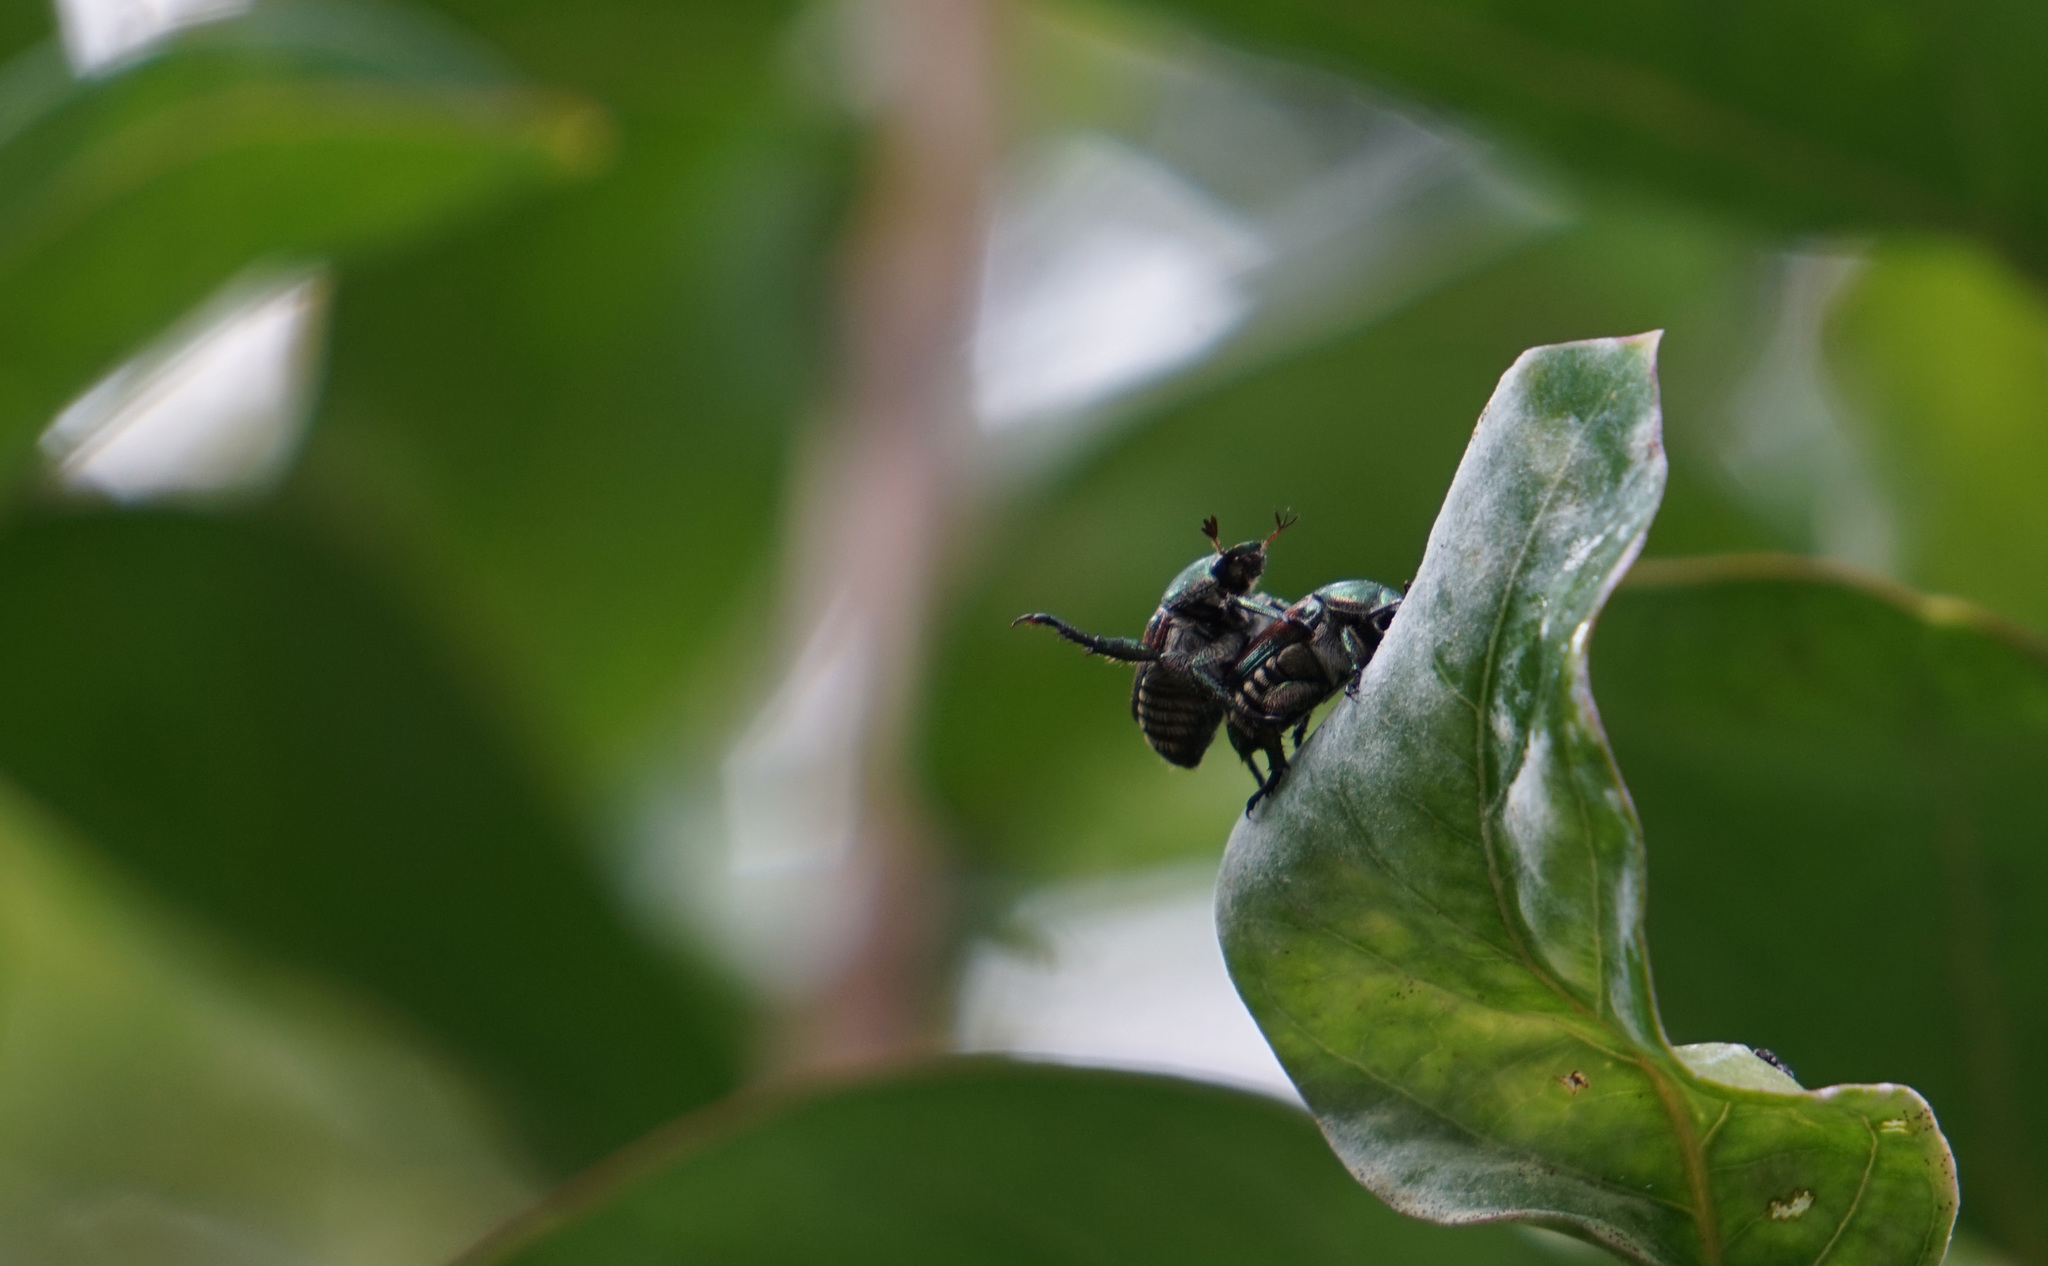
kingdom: Animalia
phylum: Arthropoda
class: Insecta
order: Coleoptera
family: Scarabaeidae
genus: Popillia
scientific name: Popillia japonica
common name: Japanese beetle
